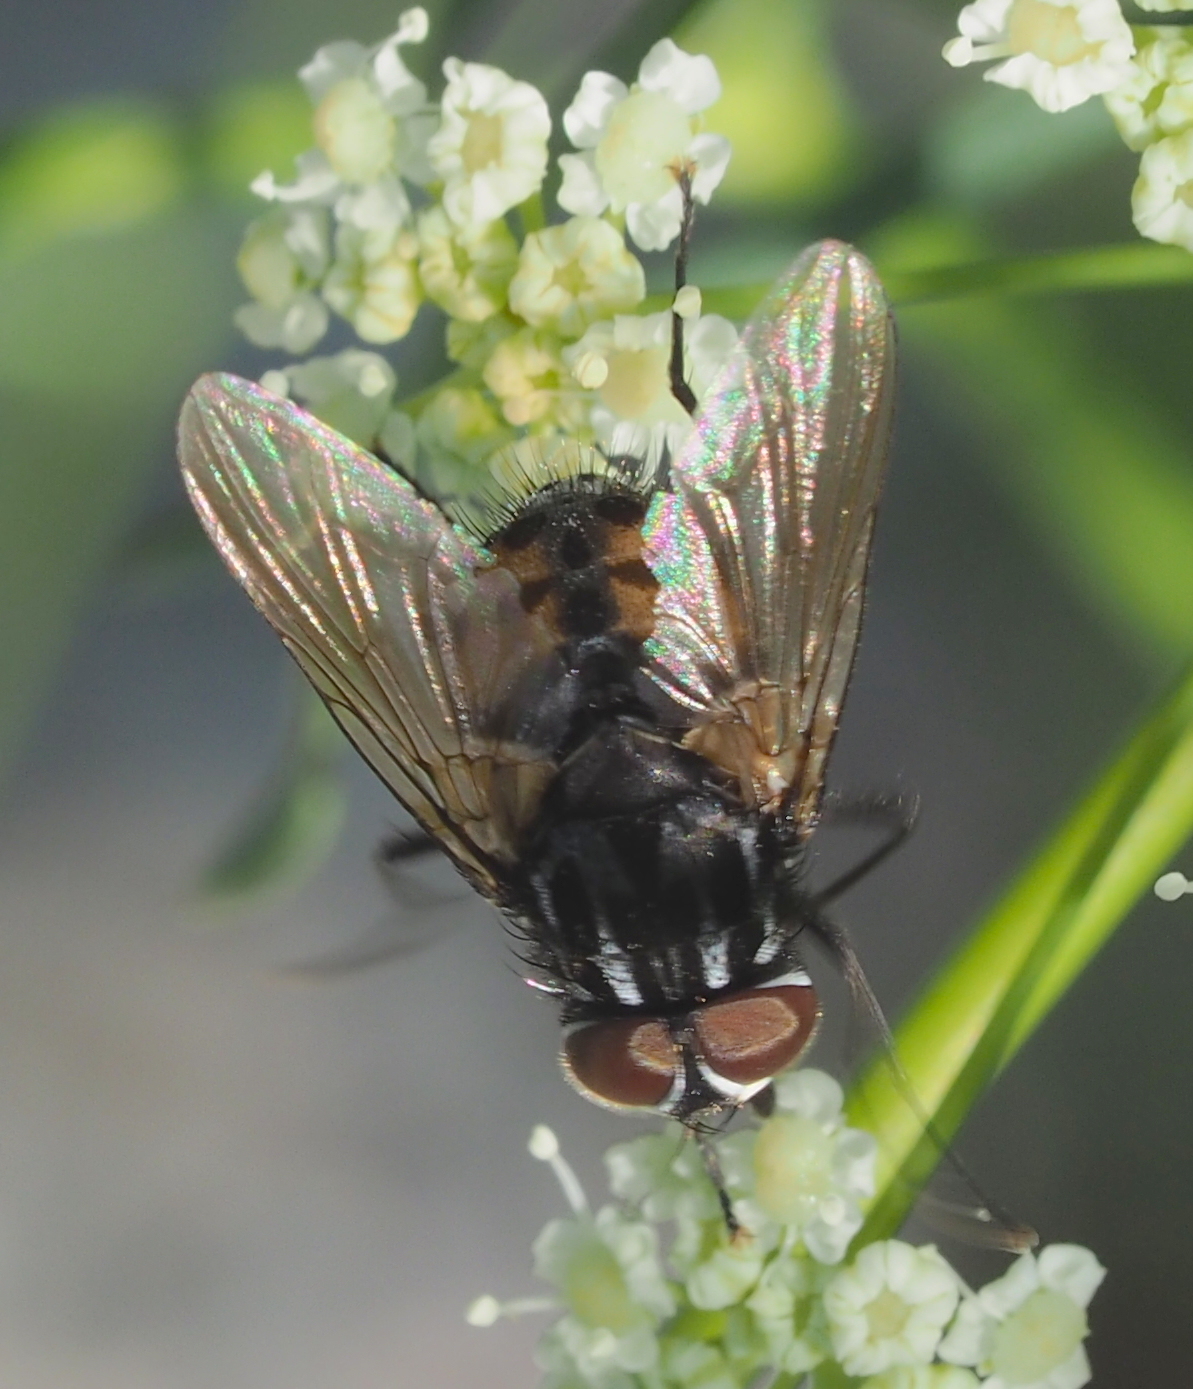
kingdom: Animalia
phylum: Arthropoda
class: Insecta
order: Diptera
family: Muscidae
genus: Graphomya
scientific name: Graphomya maculata
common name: Muscid fly
